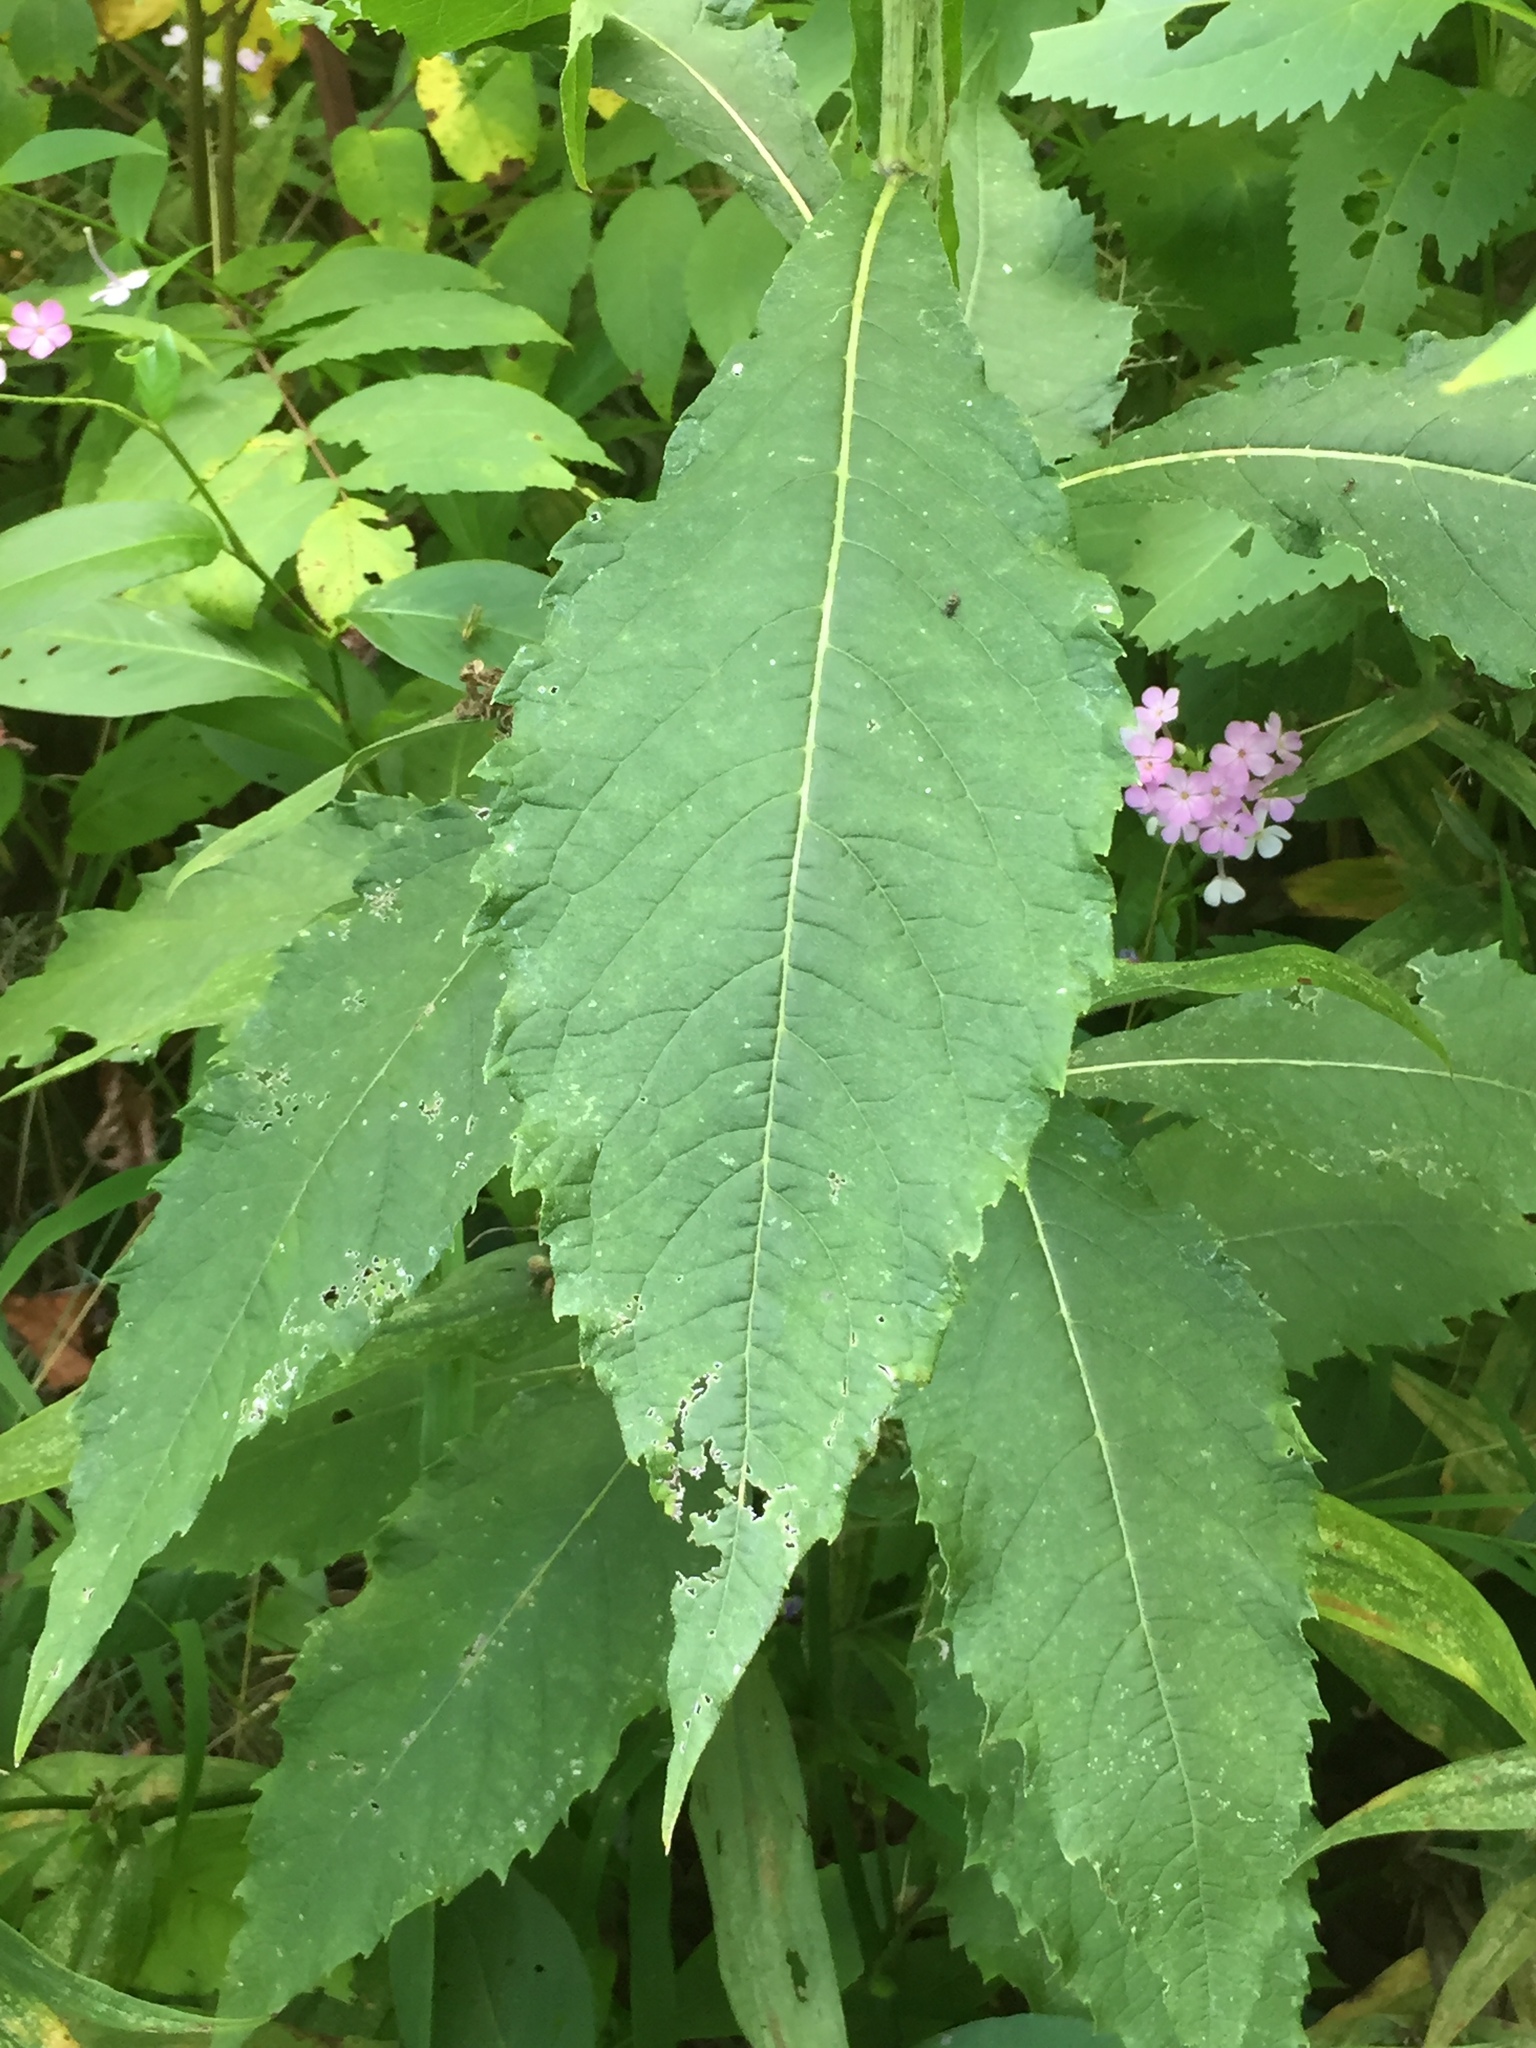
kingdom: Plantae
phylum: Tracheophyta
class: Magnoliopsida
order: Asterales
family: Asteraceae
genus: Verbesina
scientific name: Verbesina alternifolia
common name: Wingstem
